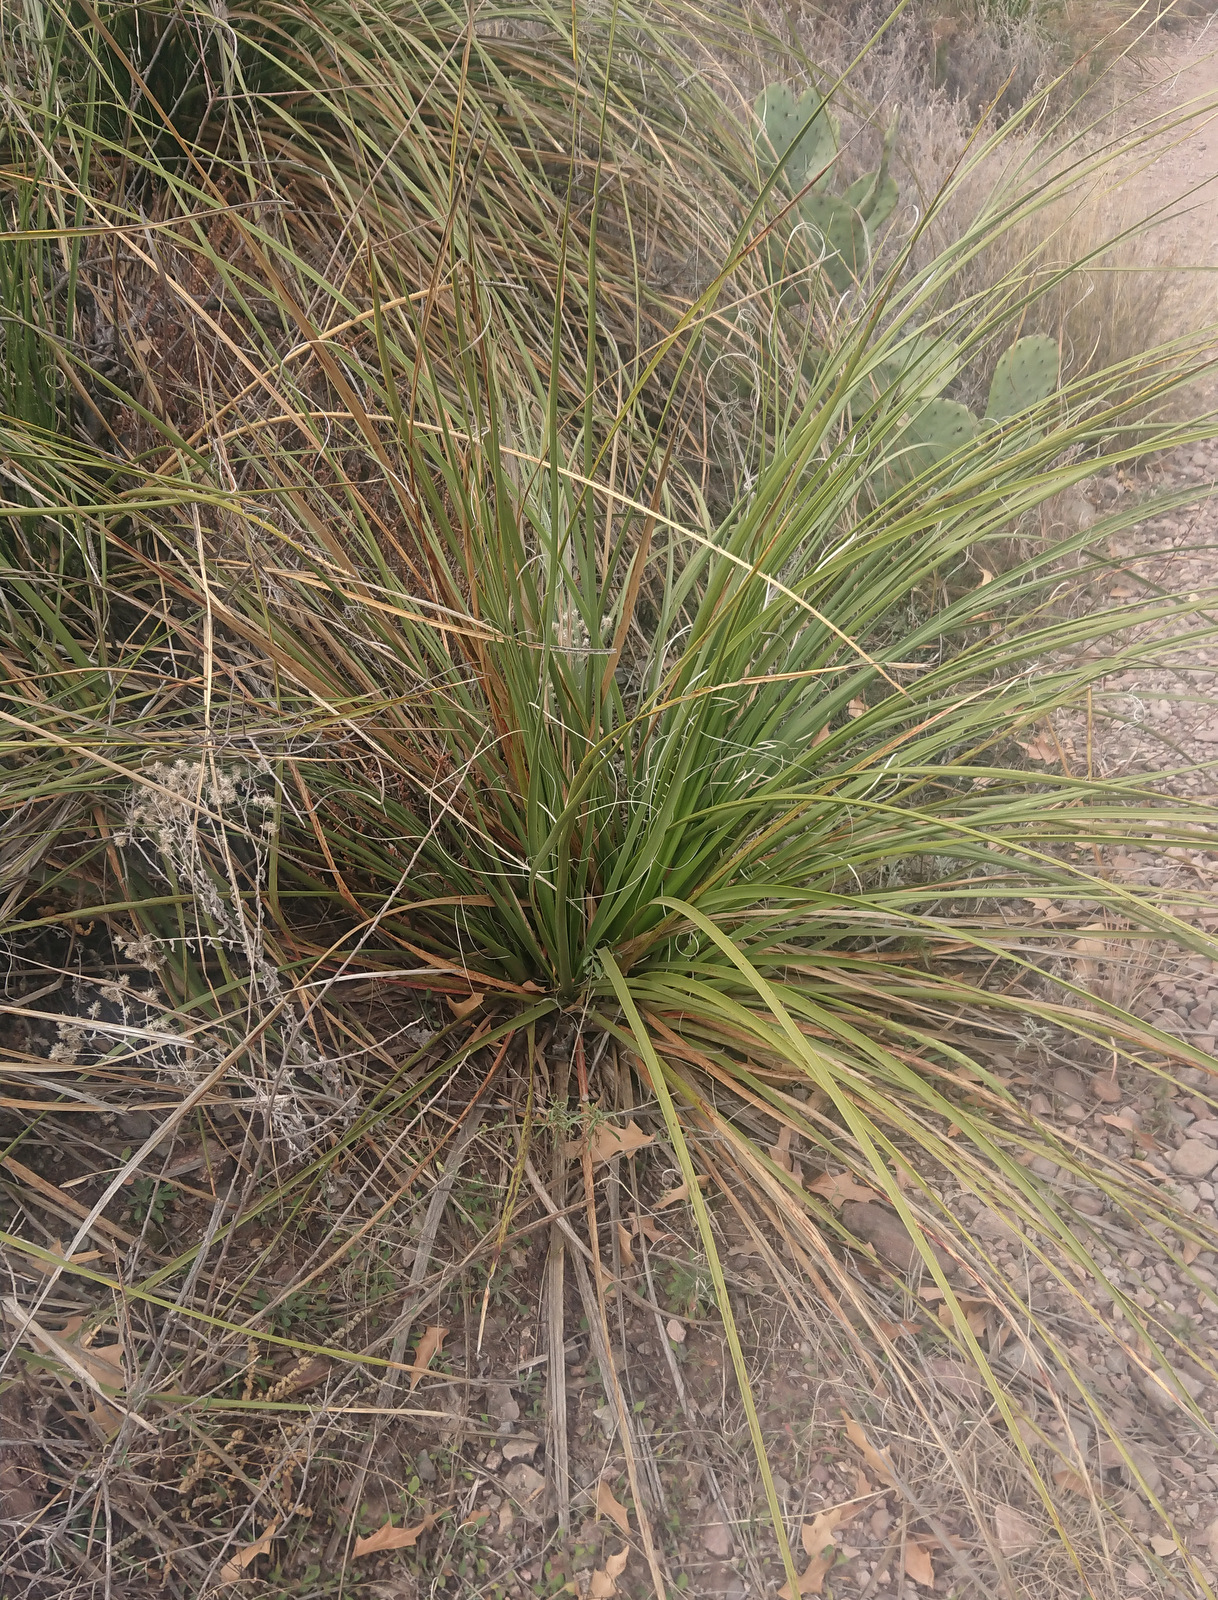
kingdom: Plantae
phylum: Tracheophyta
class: Liliopsida
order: Asparagales
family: Asparagaceae
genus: Nolina
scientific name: Nolina erumpens
